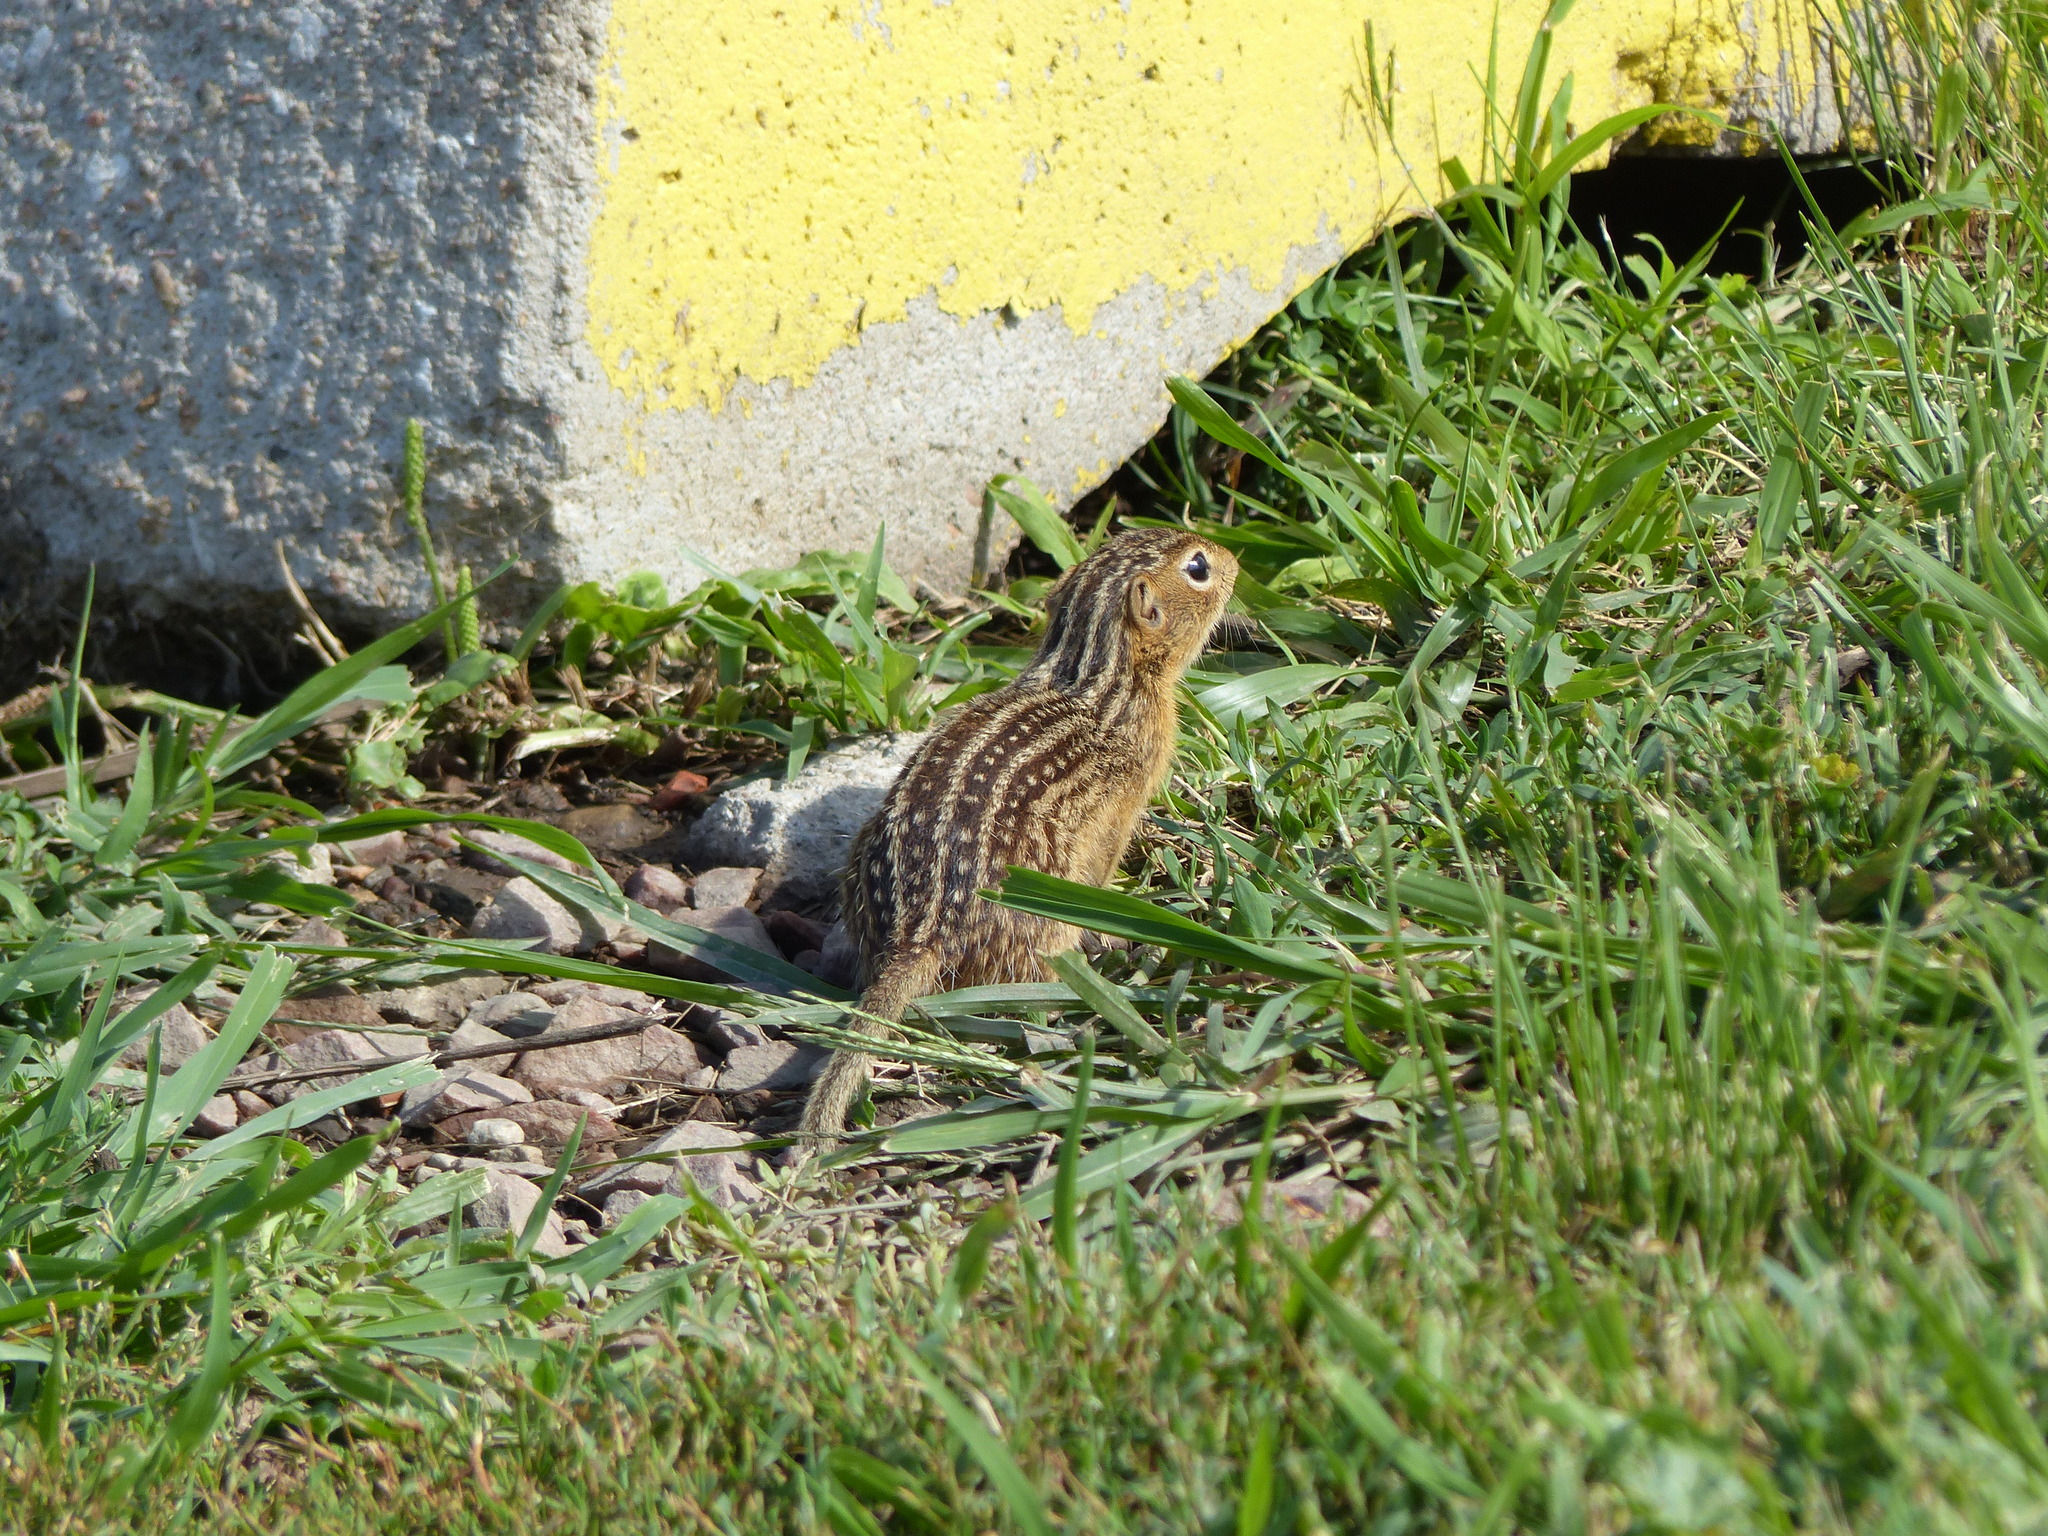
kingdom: Animalia
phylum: Chordata
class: Mammalia
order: Rodentia
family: Sciuridae
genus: Ictidomys
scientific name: Ictidomys tridecemlineatus
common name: Thirteen-lined ground squirrel
